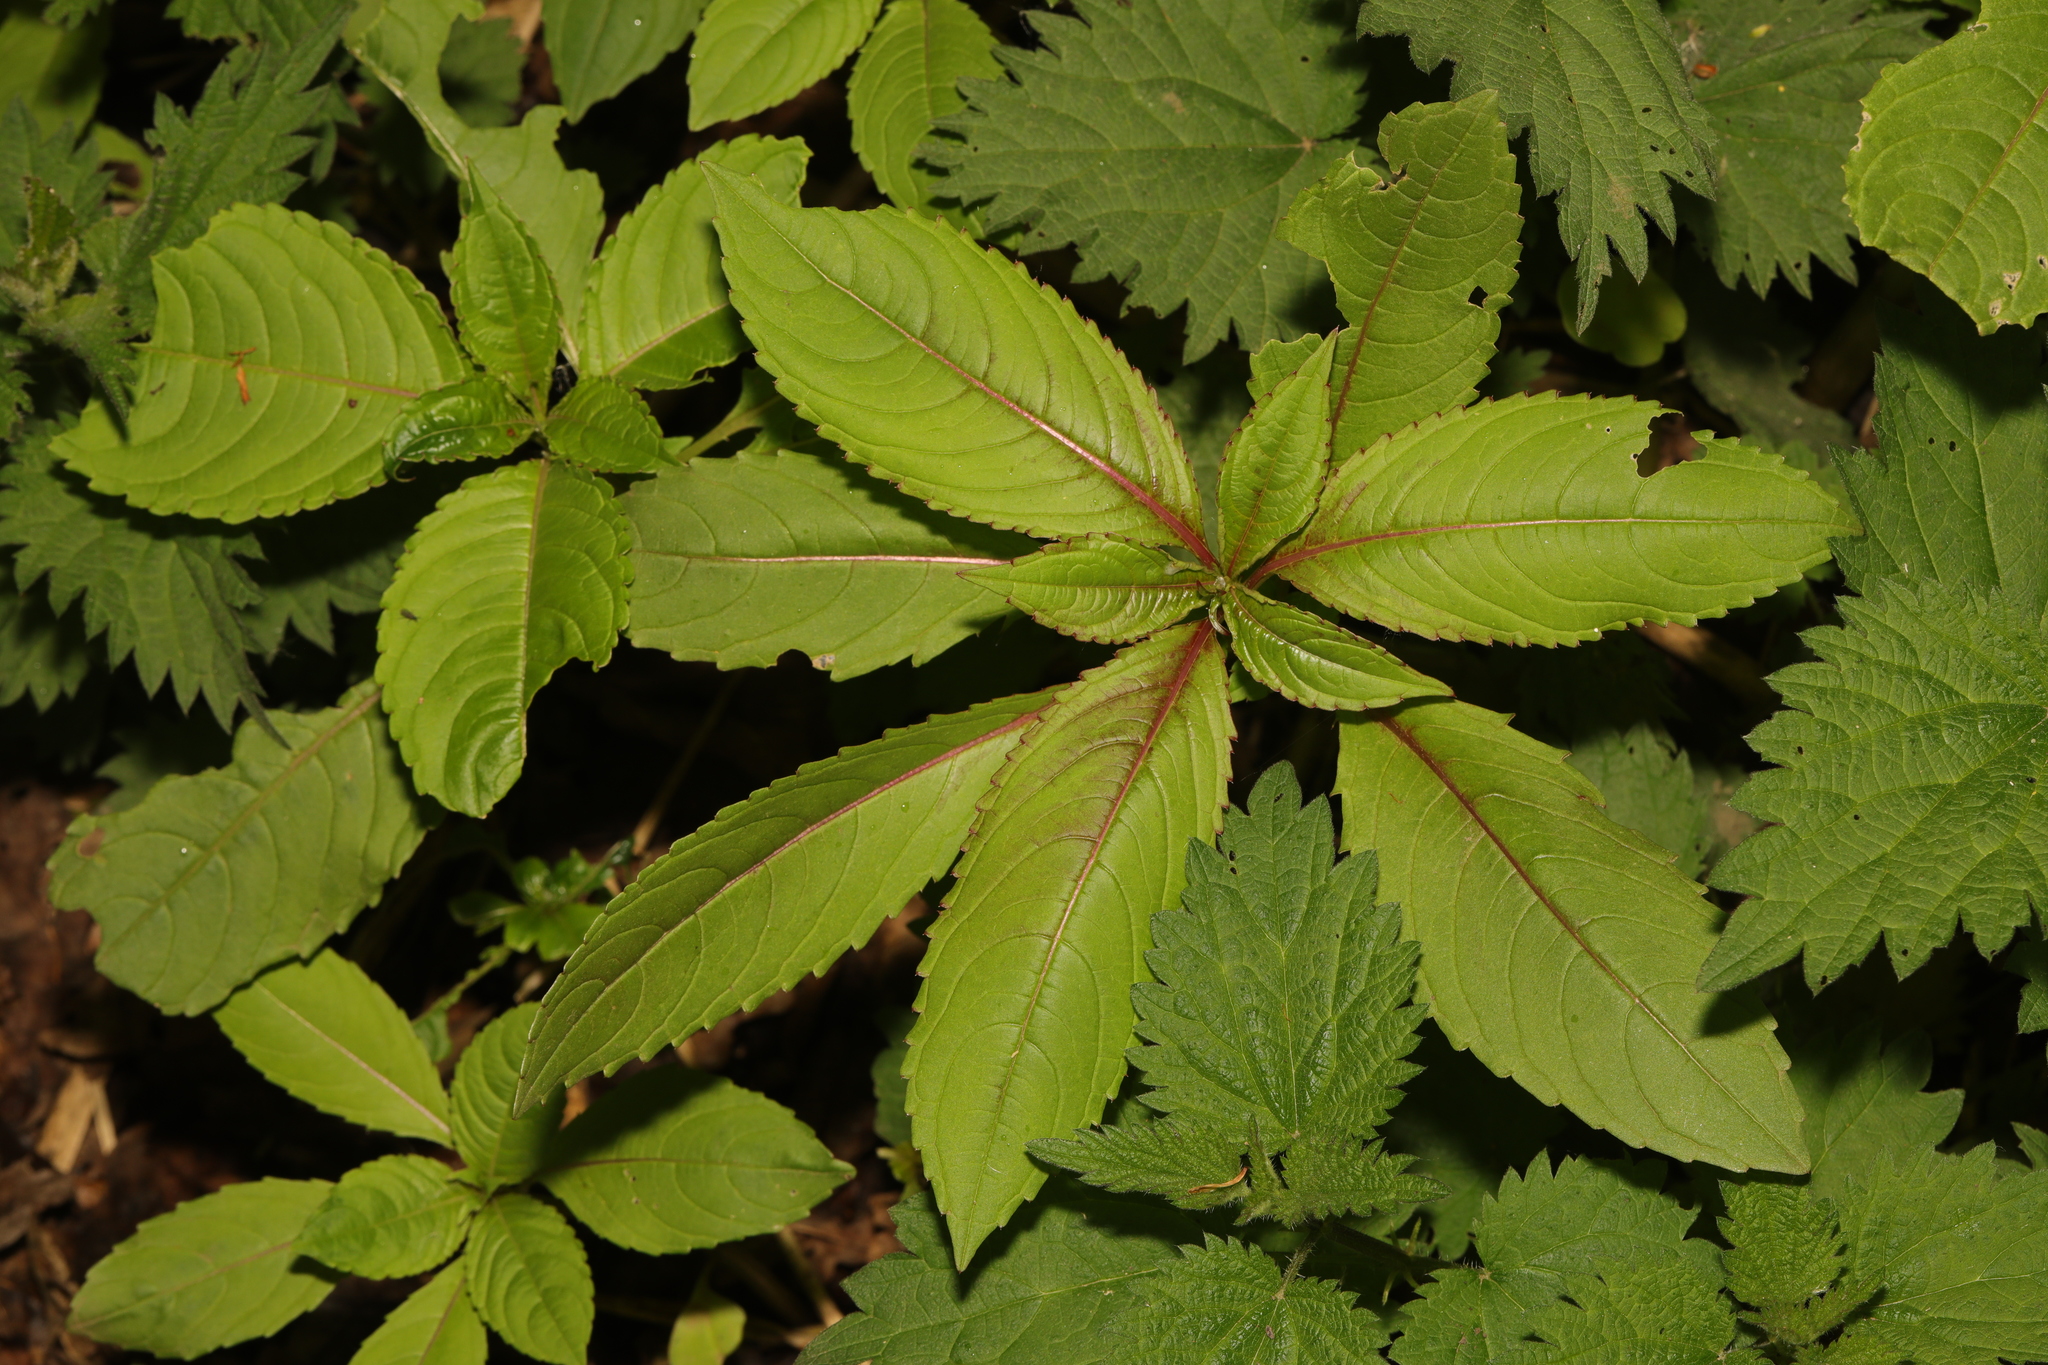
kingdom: Plantae
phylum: Tracheophyta
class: Magnoliopsida
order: Ericales
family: Balsaminaceae
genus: Impatiens
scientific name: Impatiens glandulifera
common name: Himalayan balsam
